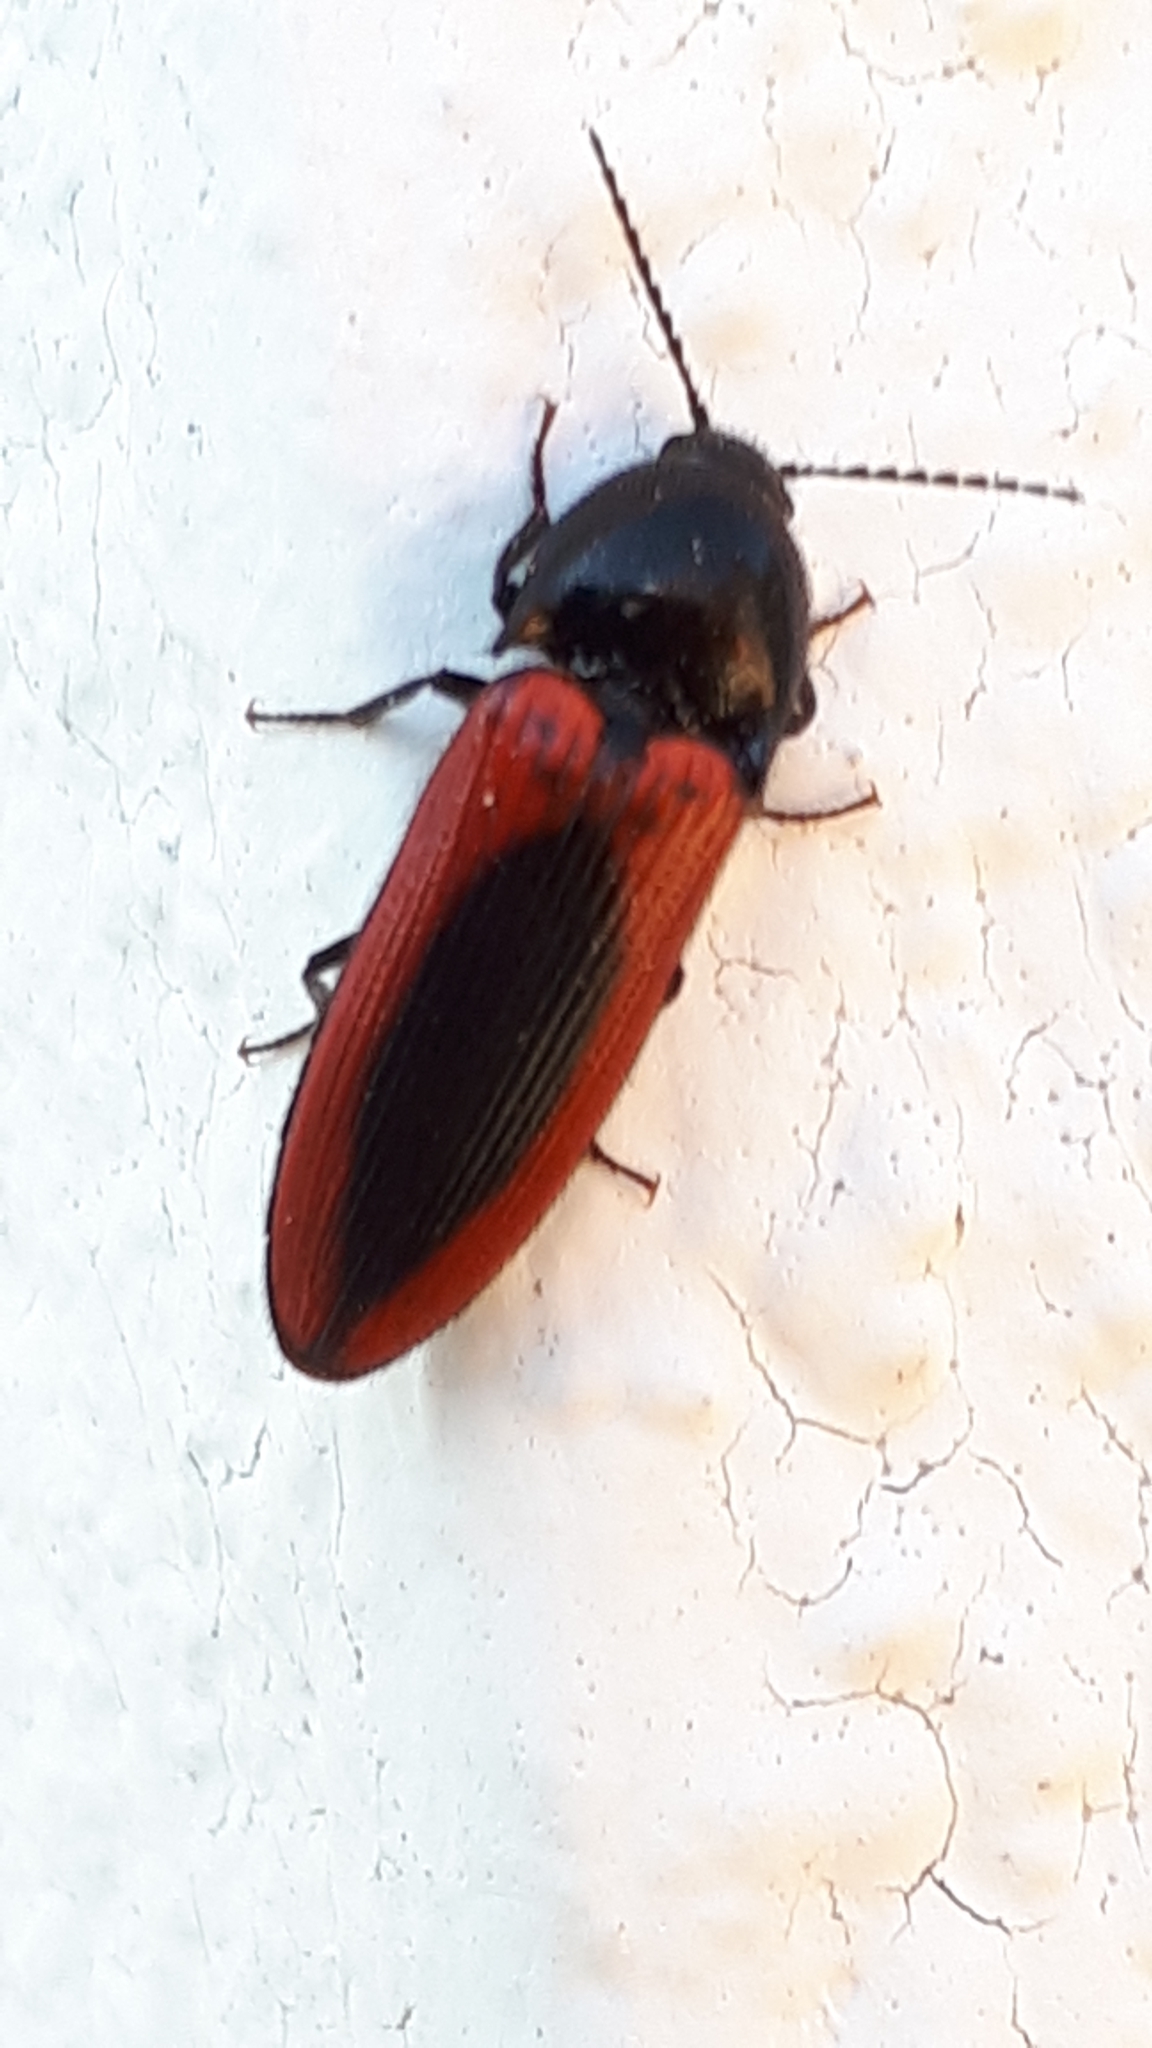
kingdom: Animalia
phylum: Arthropoda
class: Insecta
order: Coleoptera
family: Elateridae
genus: Ampedus
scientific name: Ampedus sanguinolentus
